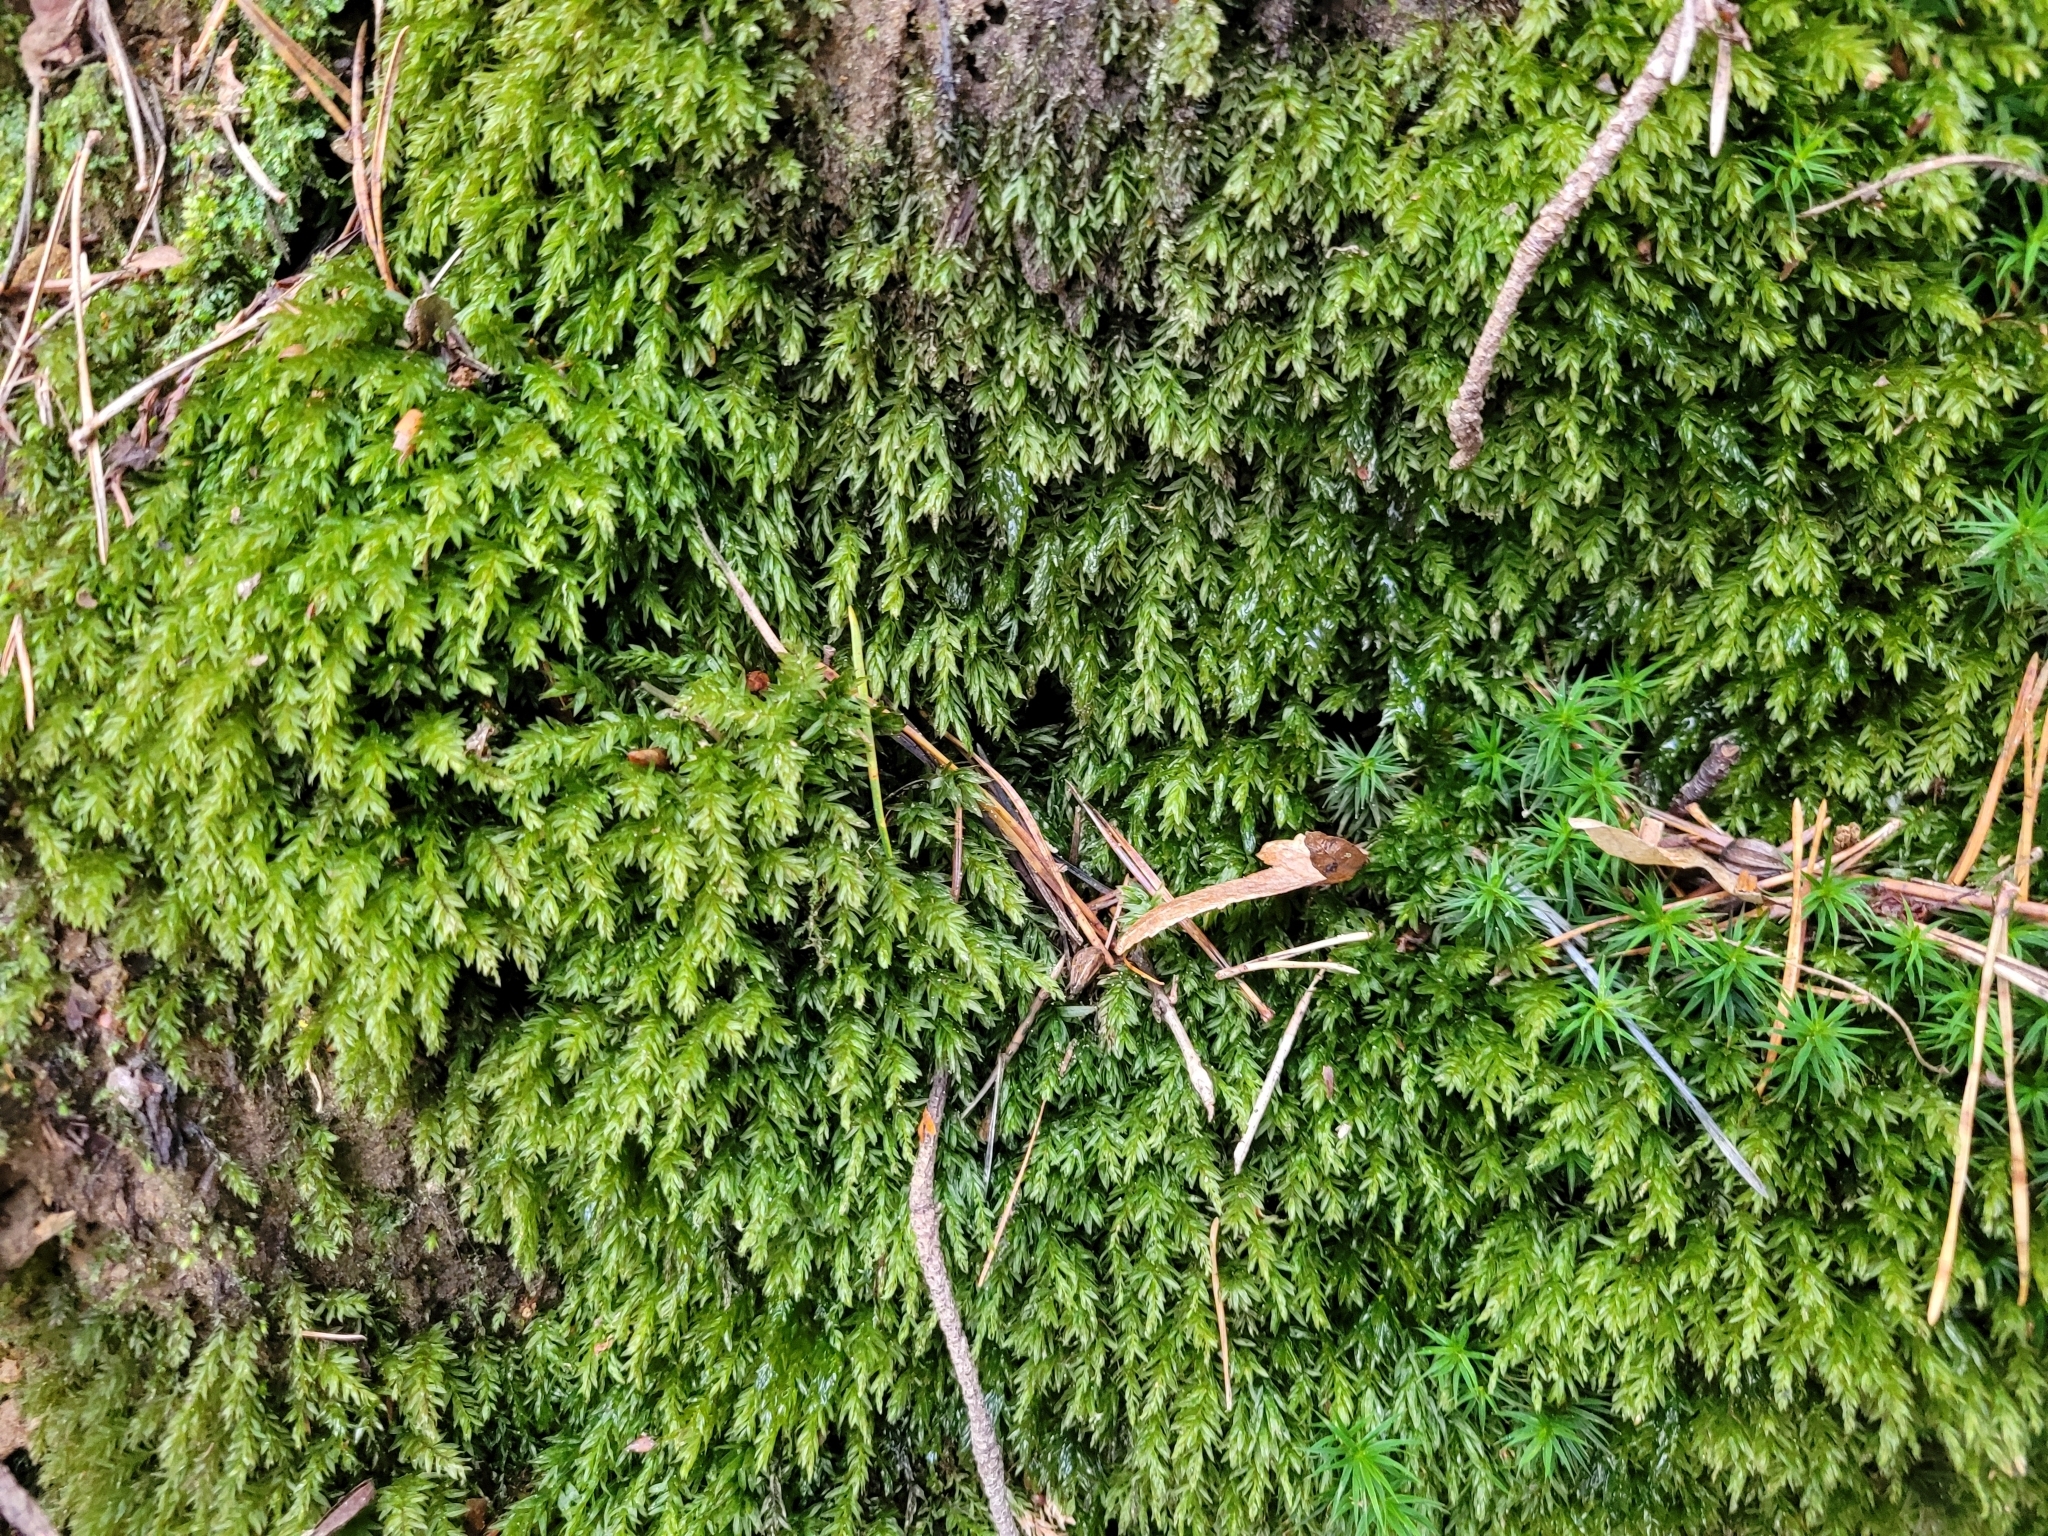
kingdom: Plantae
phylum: Bryophyta
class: Bryopsida
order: Bryales
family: Mniaceae
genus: Mnium
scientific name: Mnium hornum
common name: Swan's-neck leafy moss
